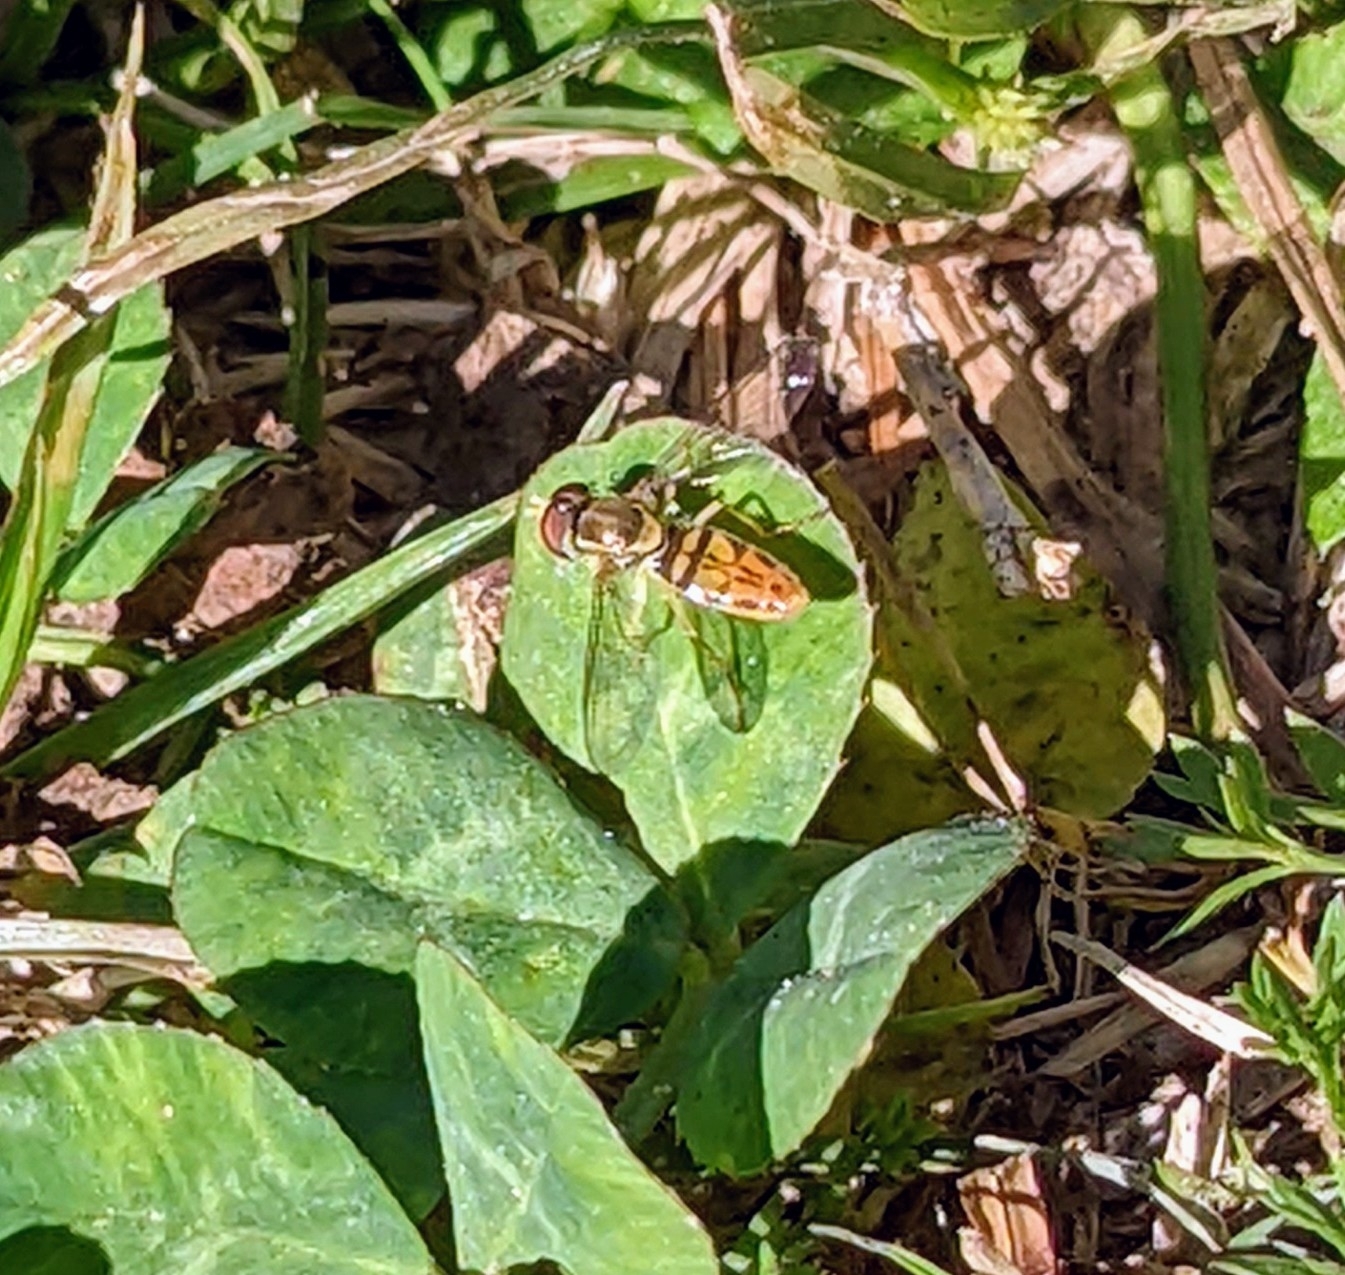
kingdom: Animalia
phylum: Arthropoda
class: Insecta
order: Diptera
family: Syrphidae
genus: Toxomerus
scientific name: Toxomerus marginatus
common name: Syrphid fly
